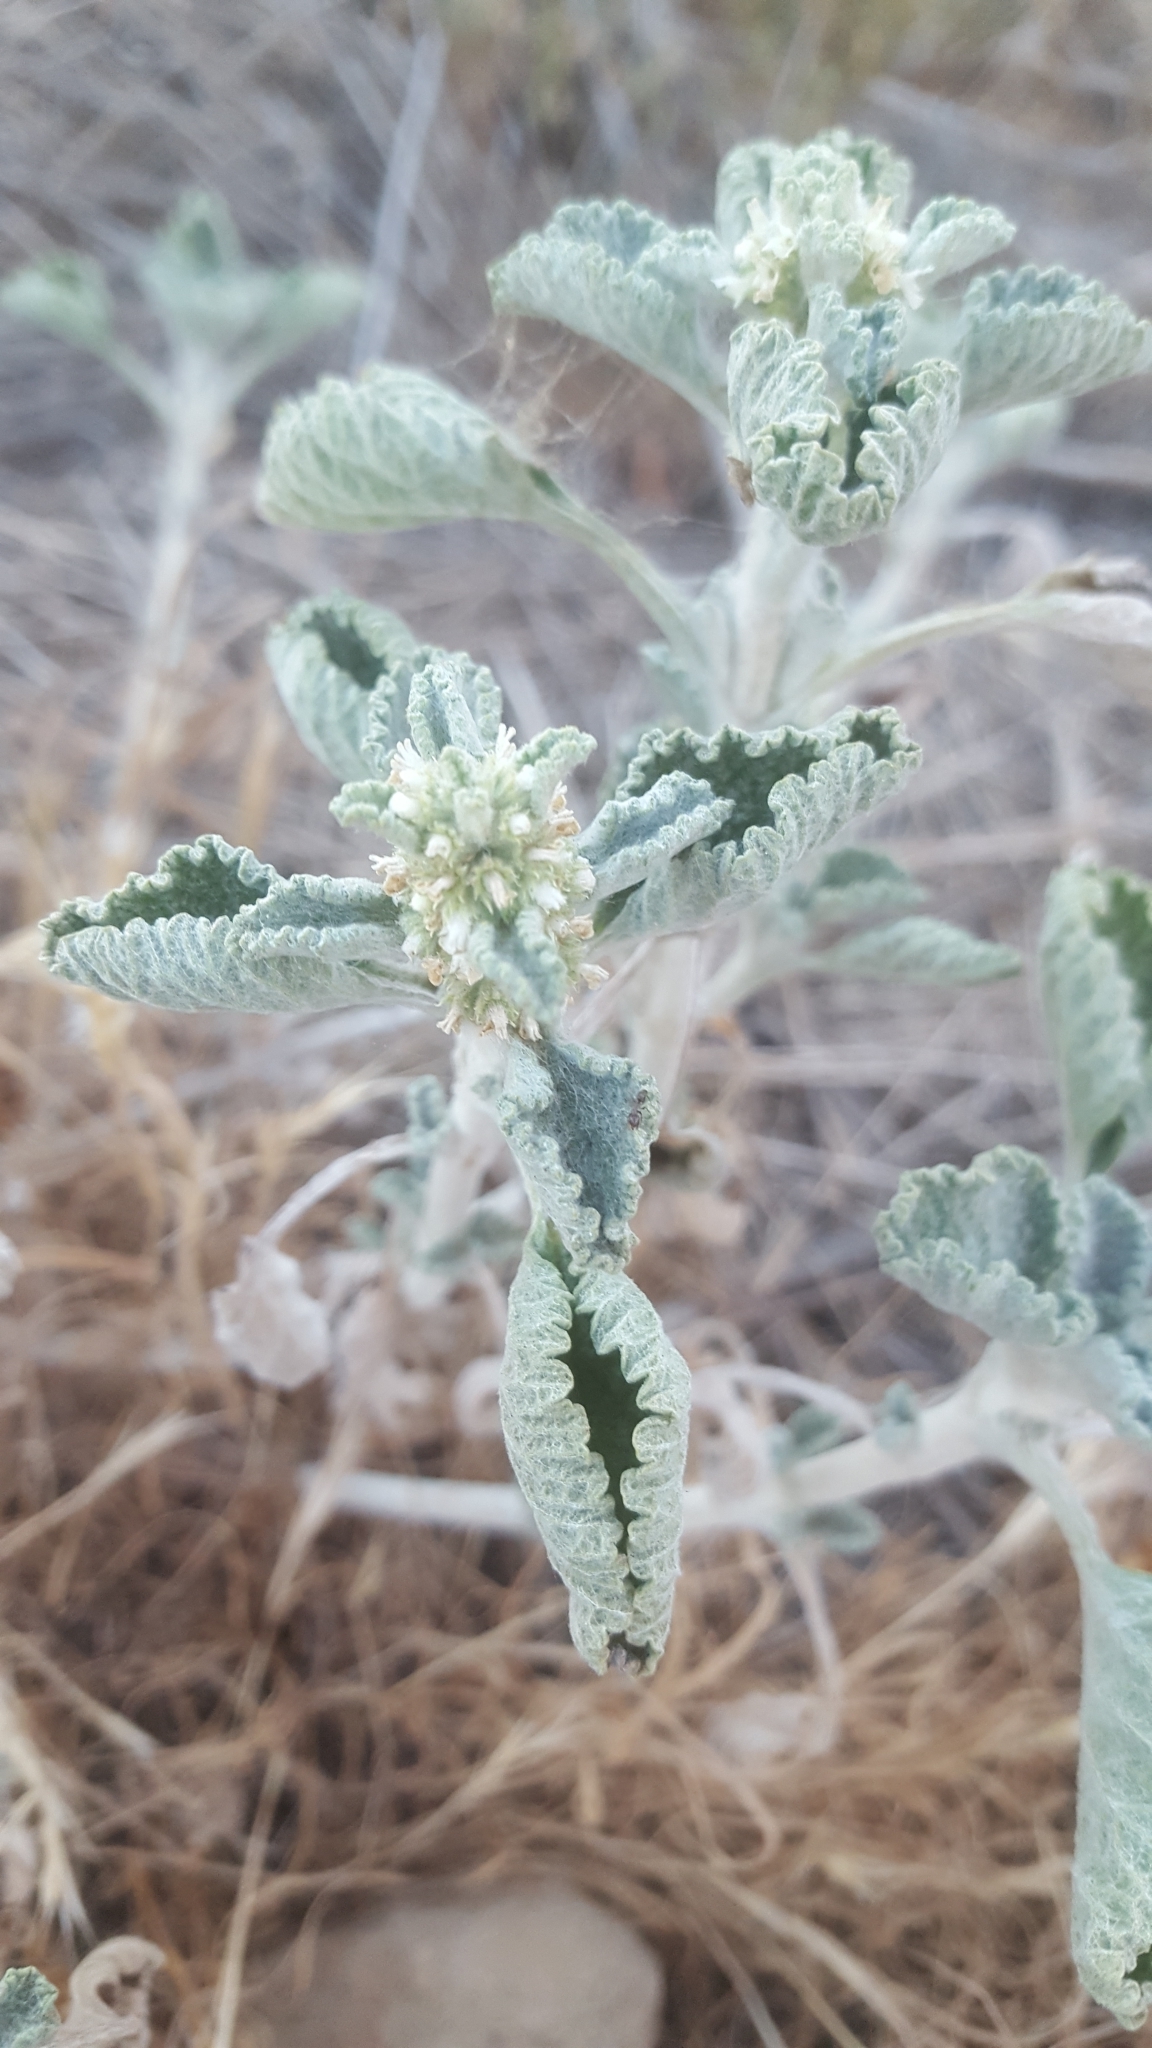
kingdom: Plantae
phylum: Tracheophyta
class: Magnoliopsida
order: Lamiales
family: Lamiaceae
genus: Marrubium
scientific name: Marrubium vulgare
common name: Horehound
